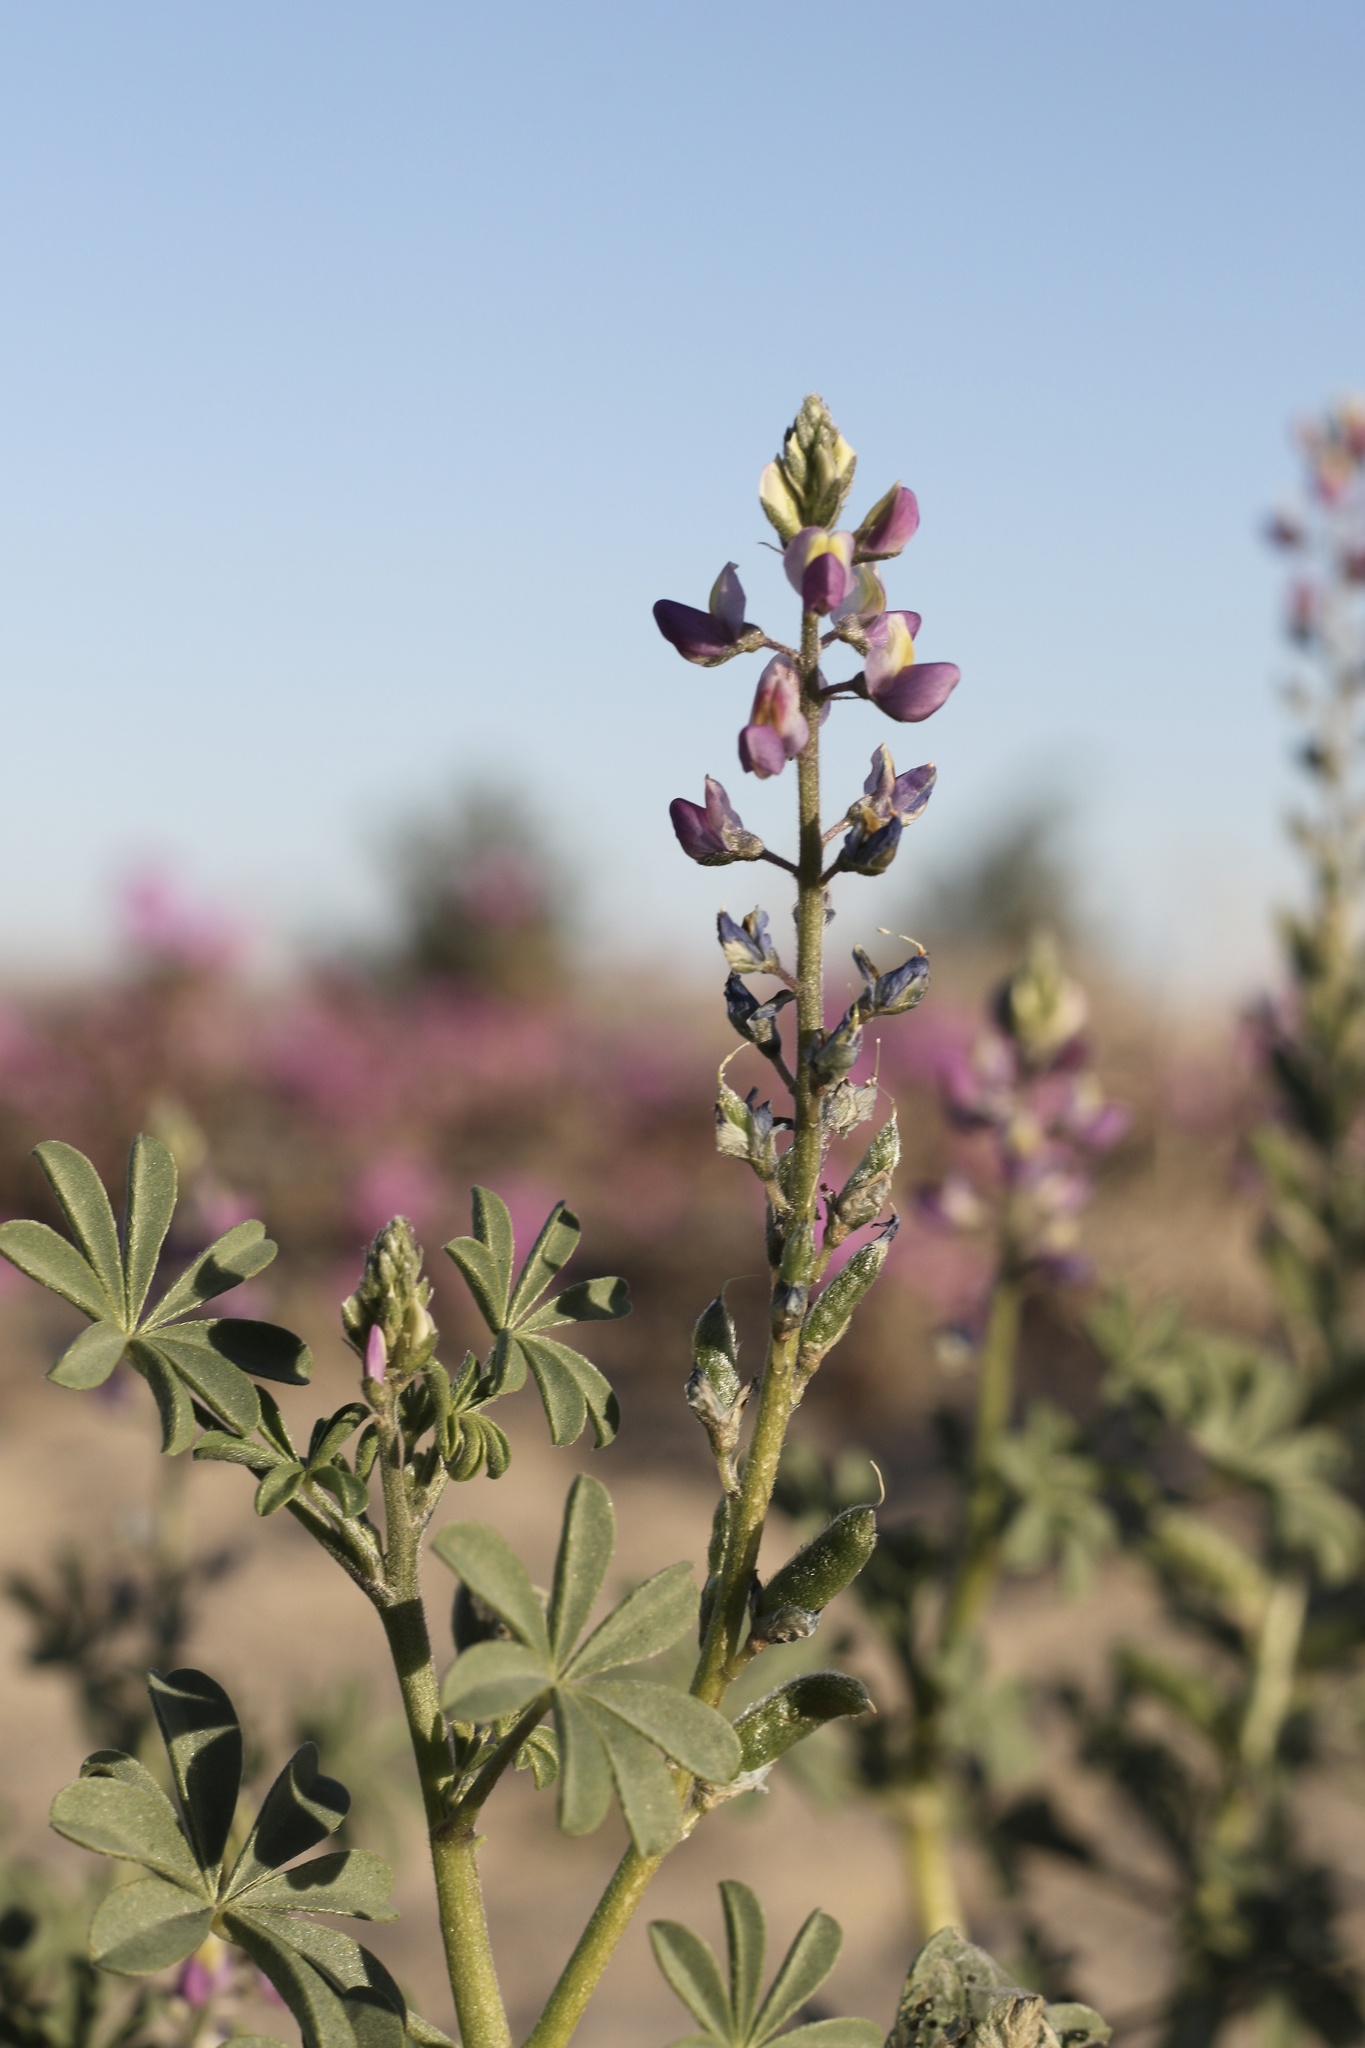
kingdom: Plantae
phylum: Tracheophyta
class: Magnoliopsida
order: Fabales
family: Fabaceae
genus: Lupinus
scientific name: Lupinus arizonicus
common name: Arizona lupine
